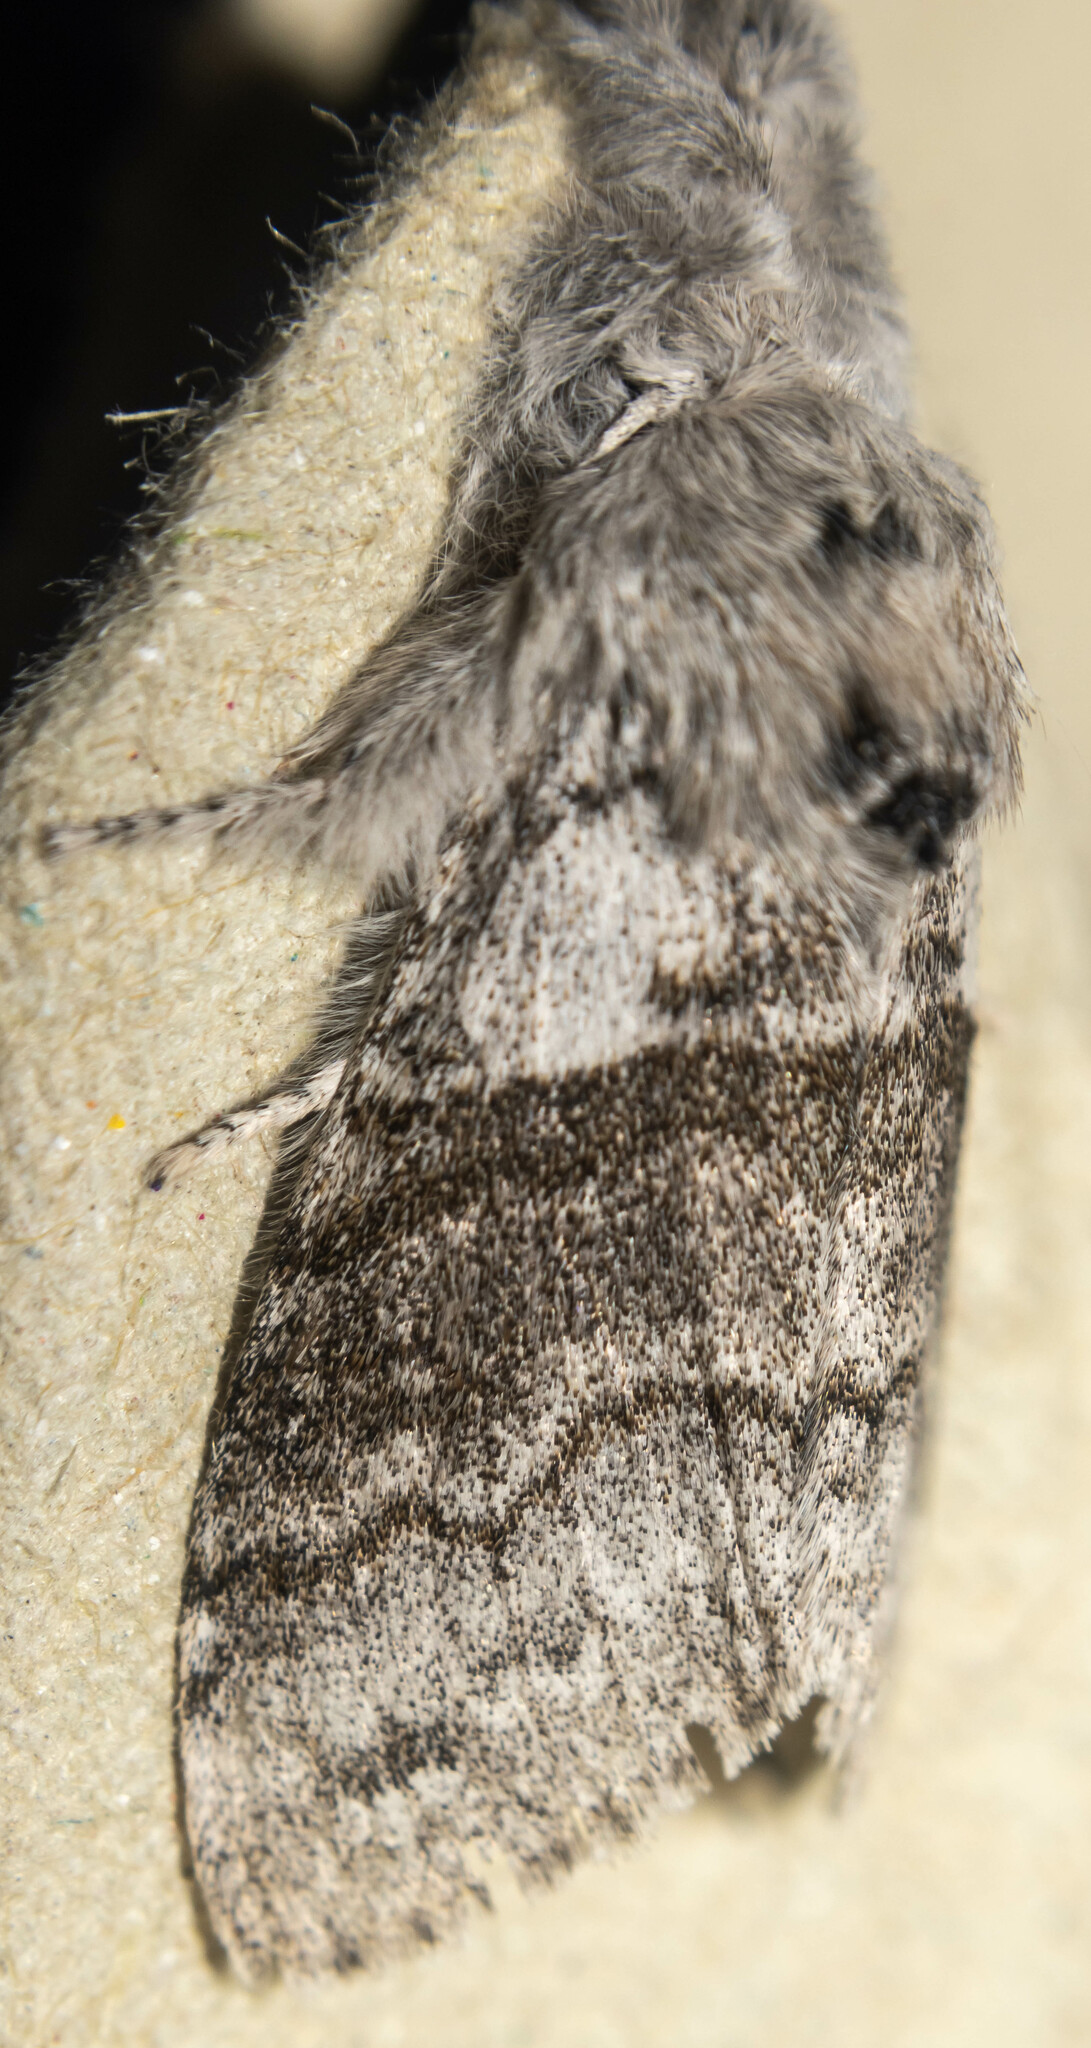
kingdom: Animalia
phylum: Arthropoda
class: Insecta
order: Lepidoptera
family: Erebidae
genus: Calliteara
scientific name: Calliteara pudibunda
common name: Pale tussock
